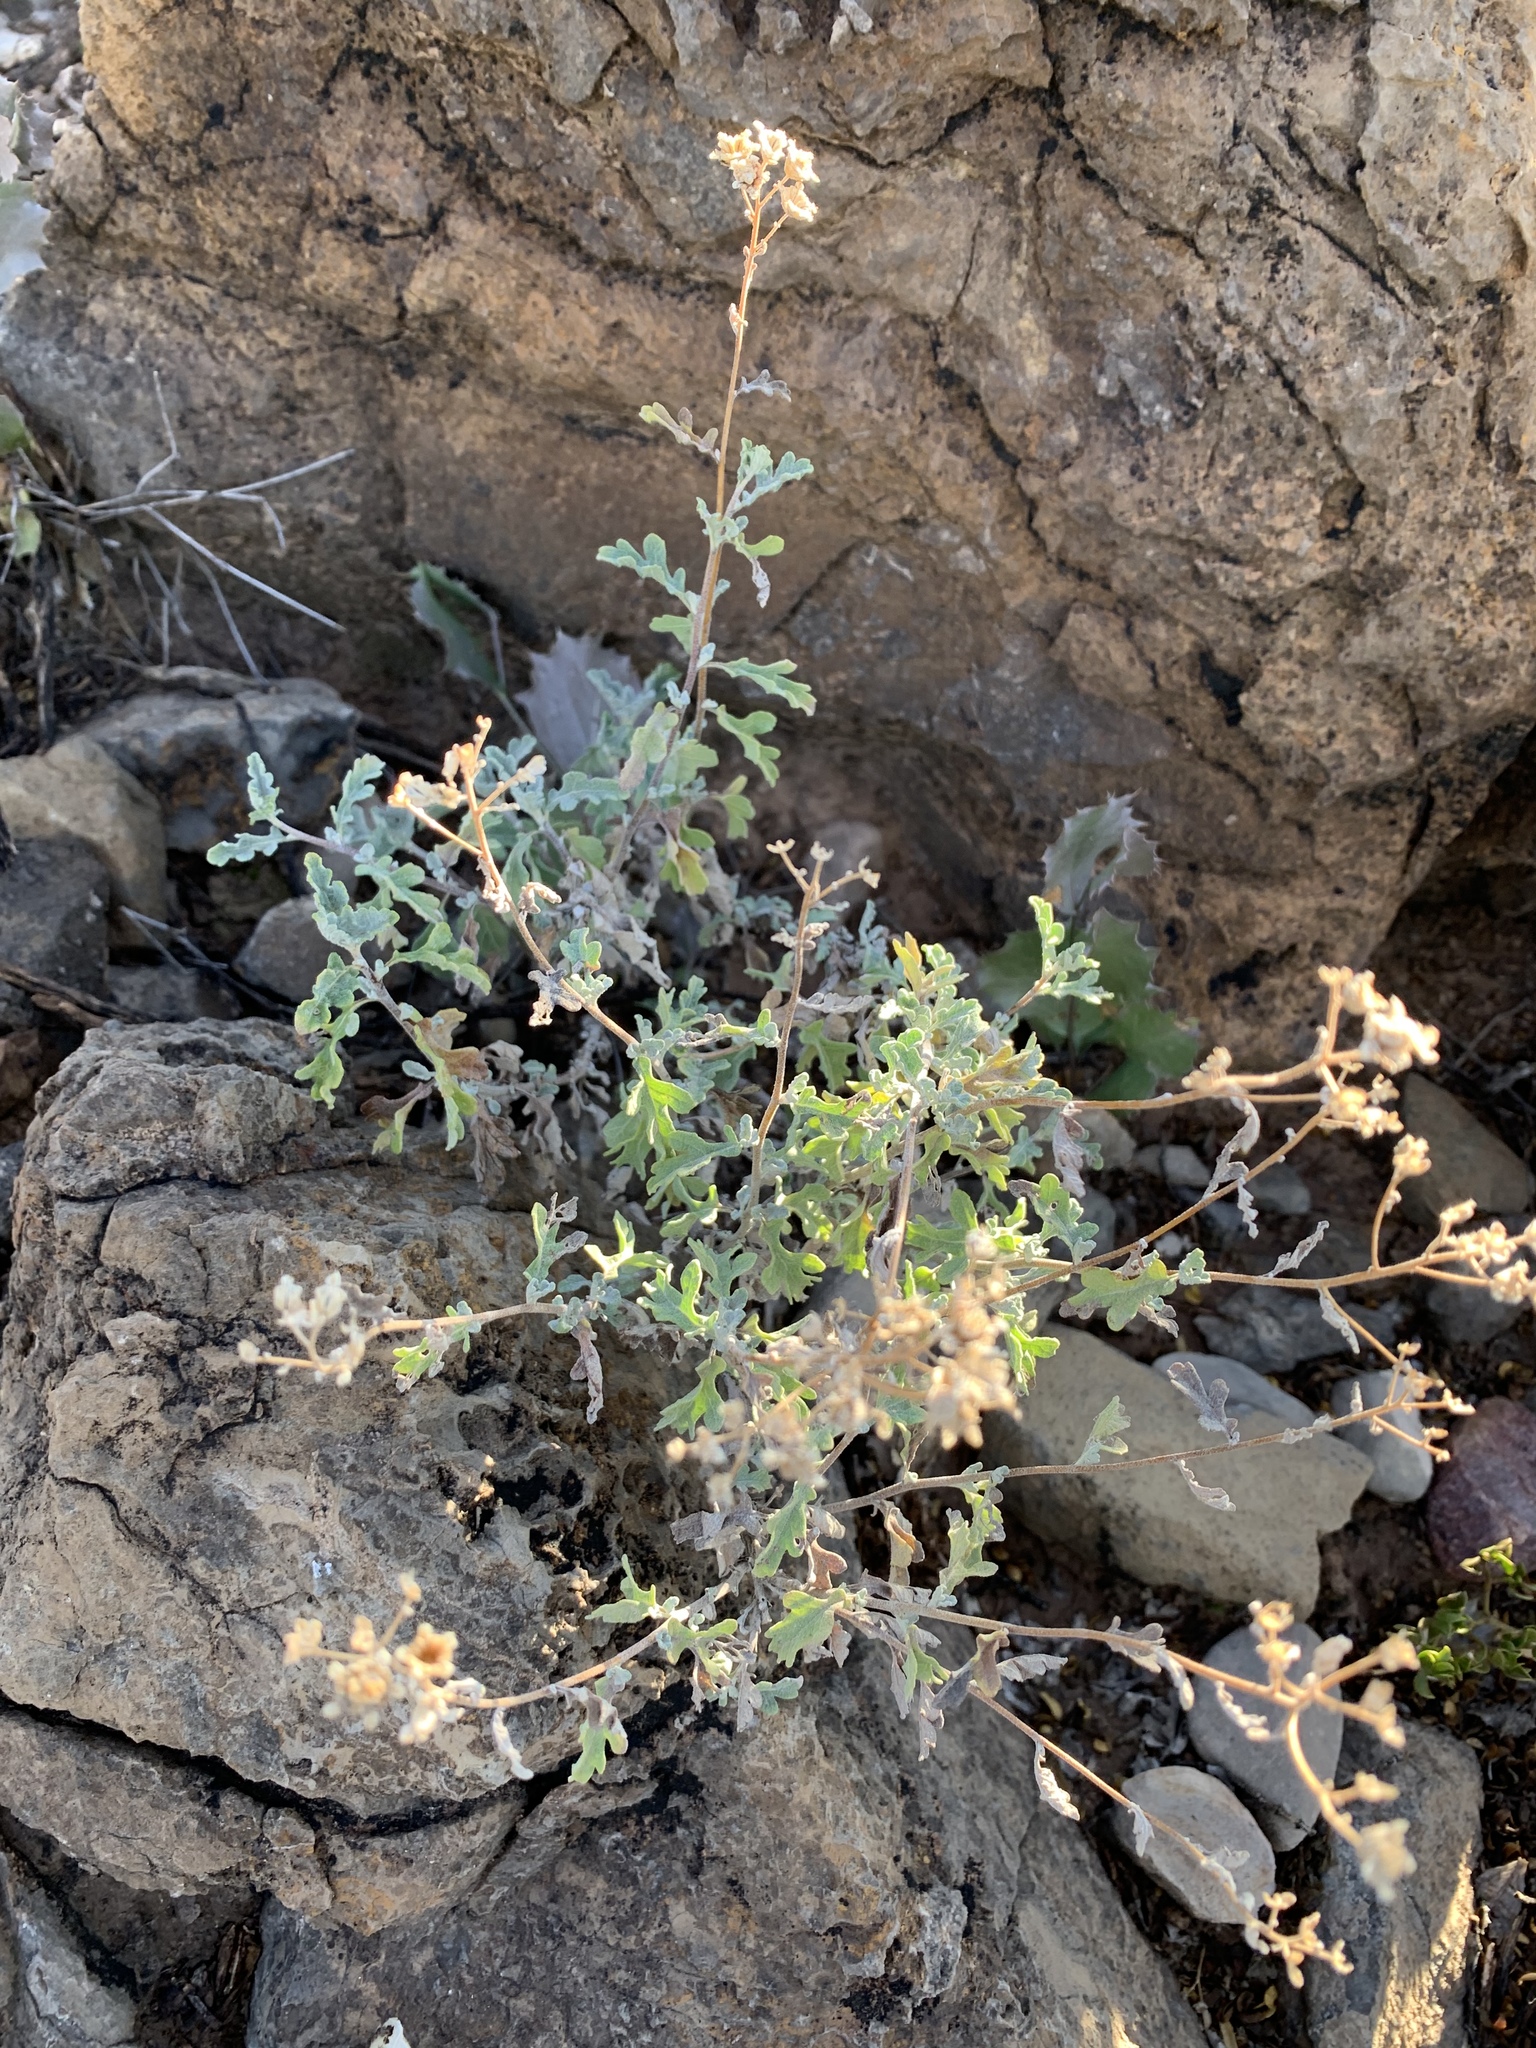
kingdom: Plantae
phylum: Tracheophyta
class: Magnoliopsida
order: Asterales
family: Asteraceae
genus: Parthenium
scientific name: Parthenium incanum
